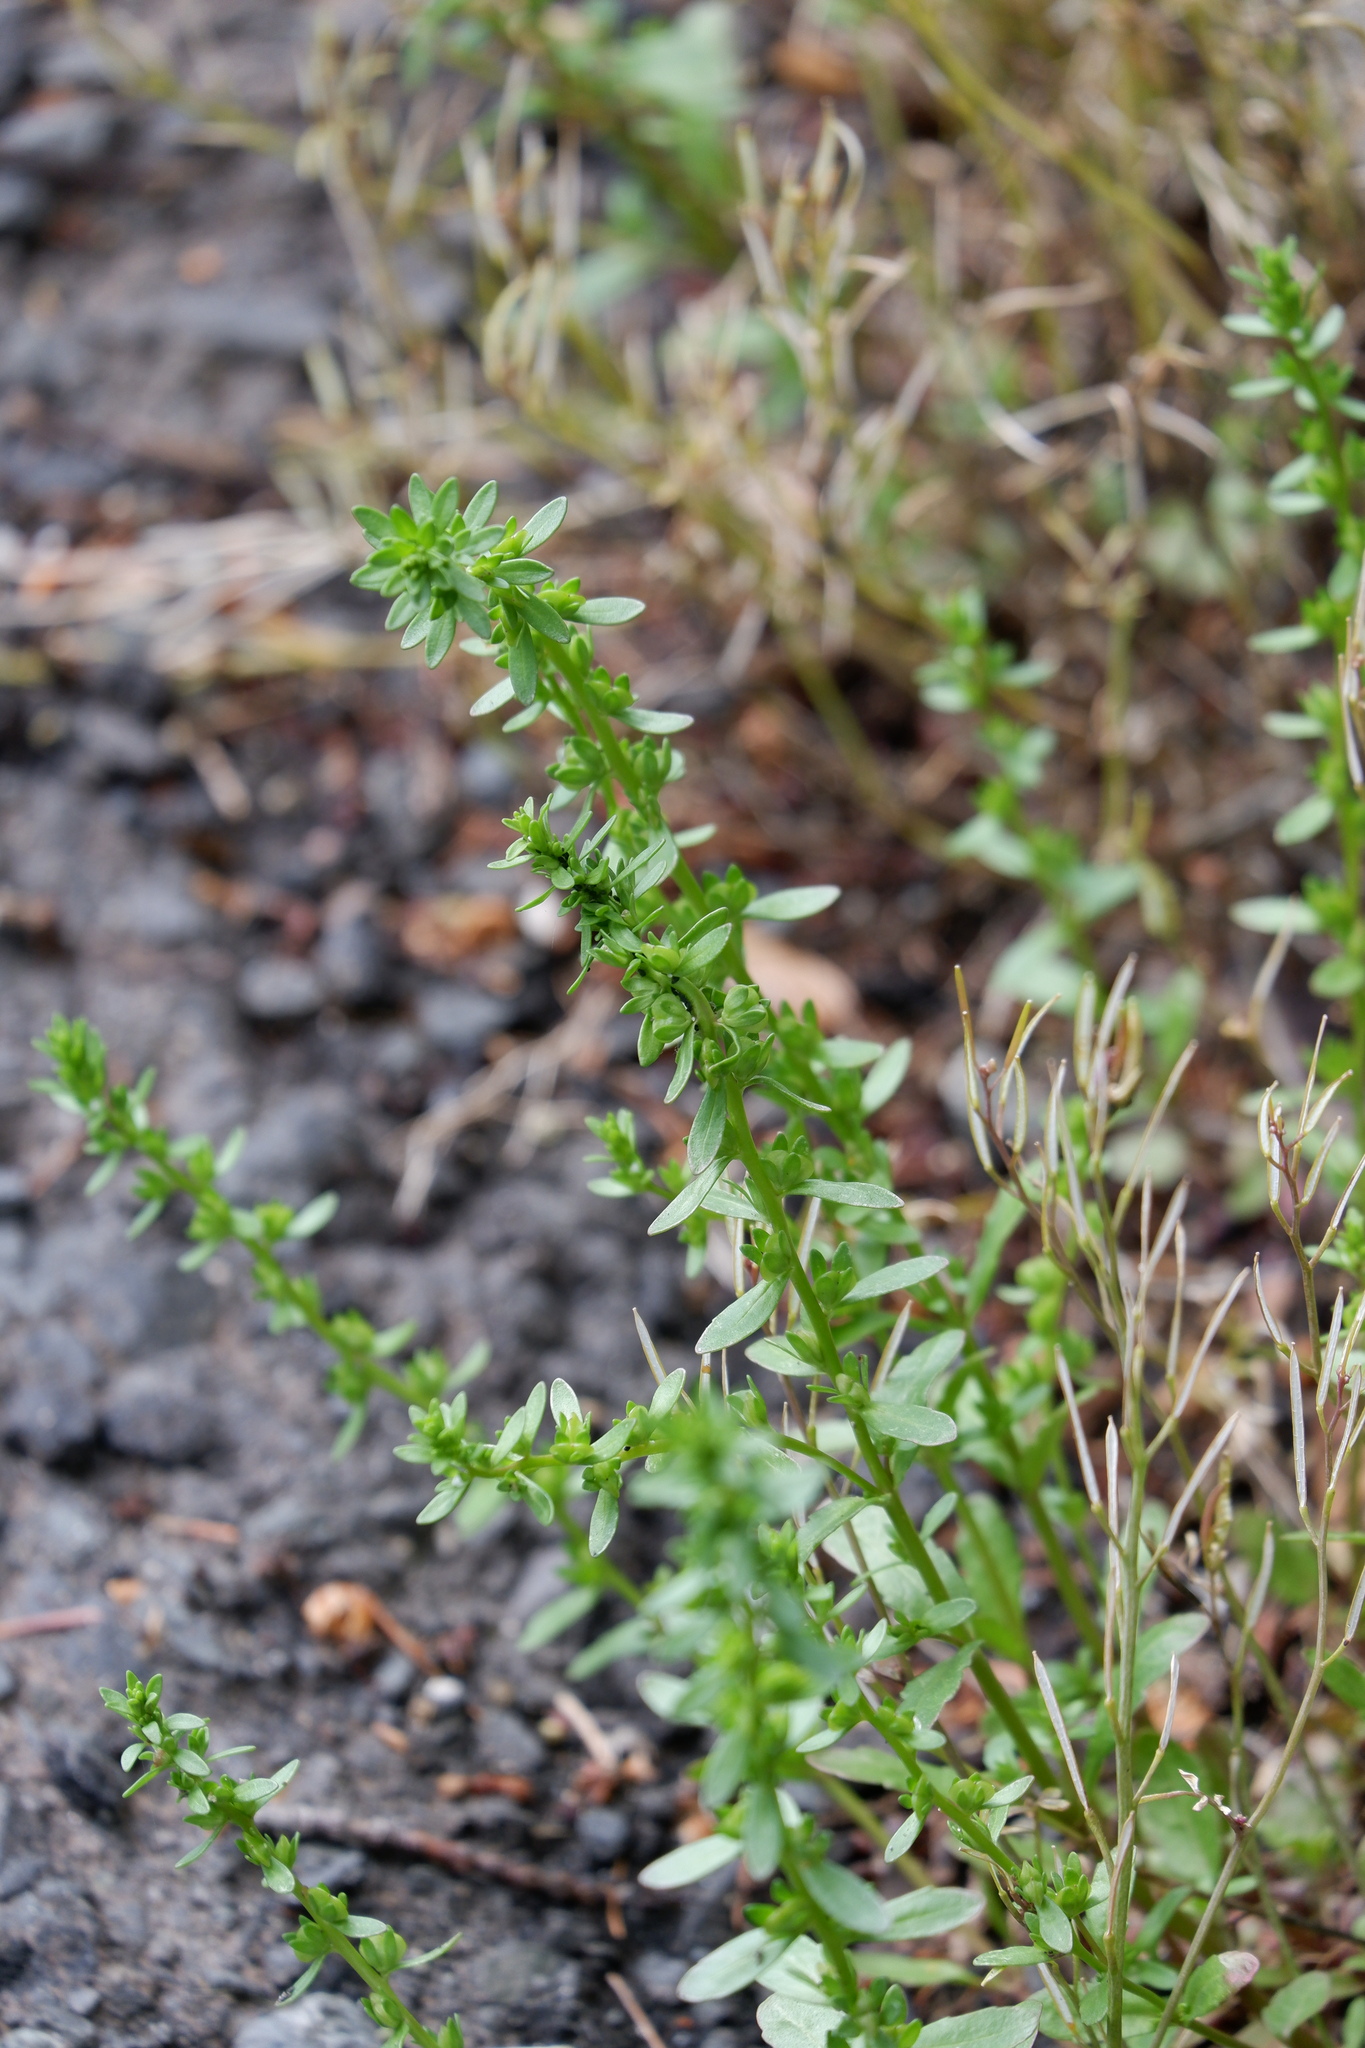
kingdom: Plantae
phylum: Tracheophyta
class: Magnoliopsida
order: Lamiales
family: Plantaginaceae
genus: Veronica
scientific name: Veronica peregrina
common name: Neckweed
